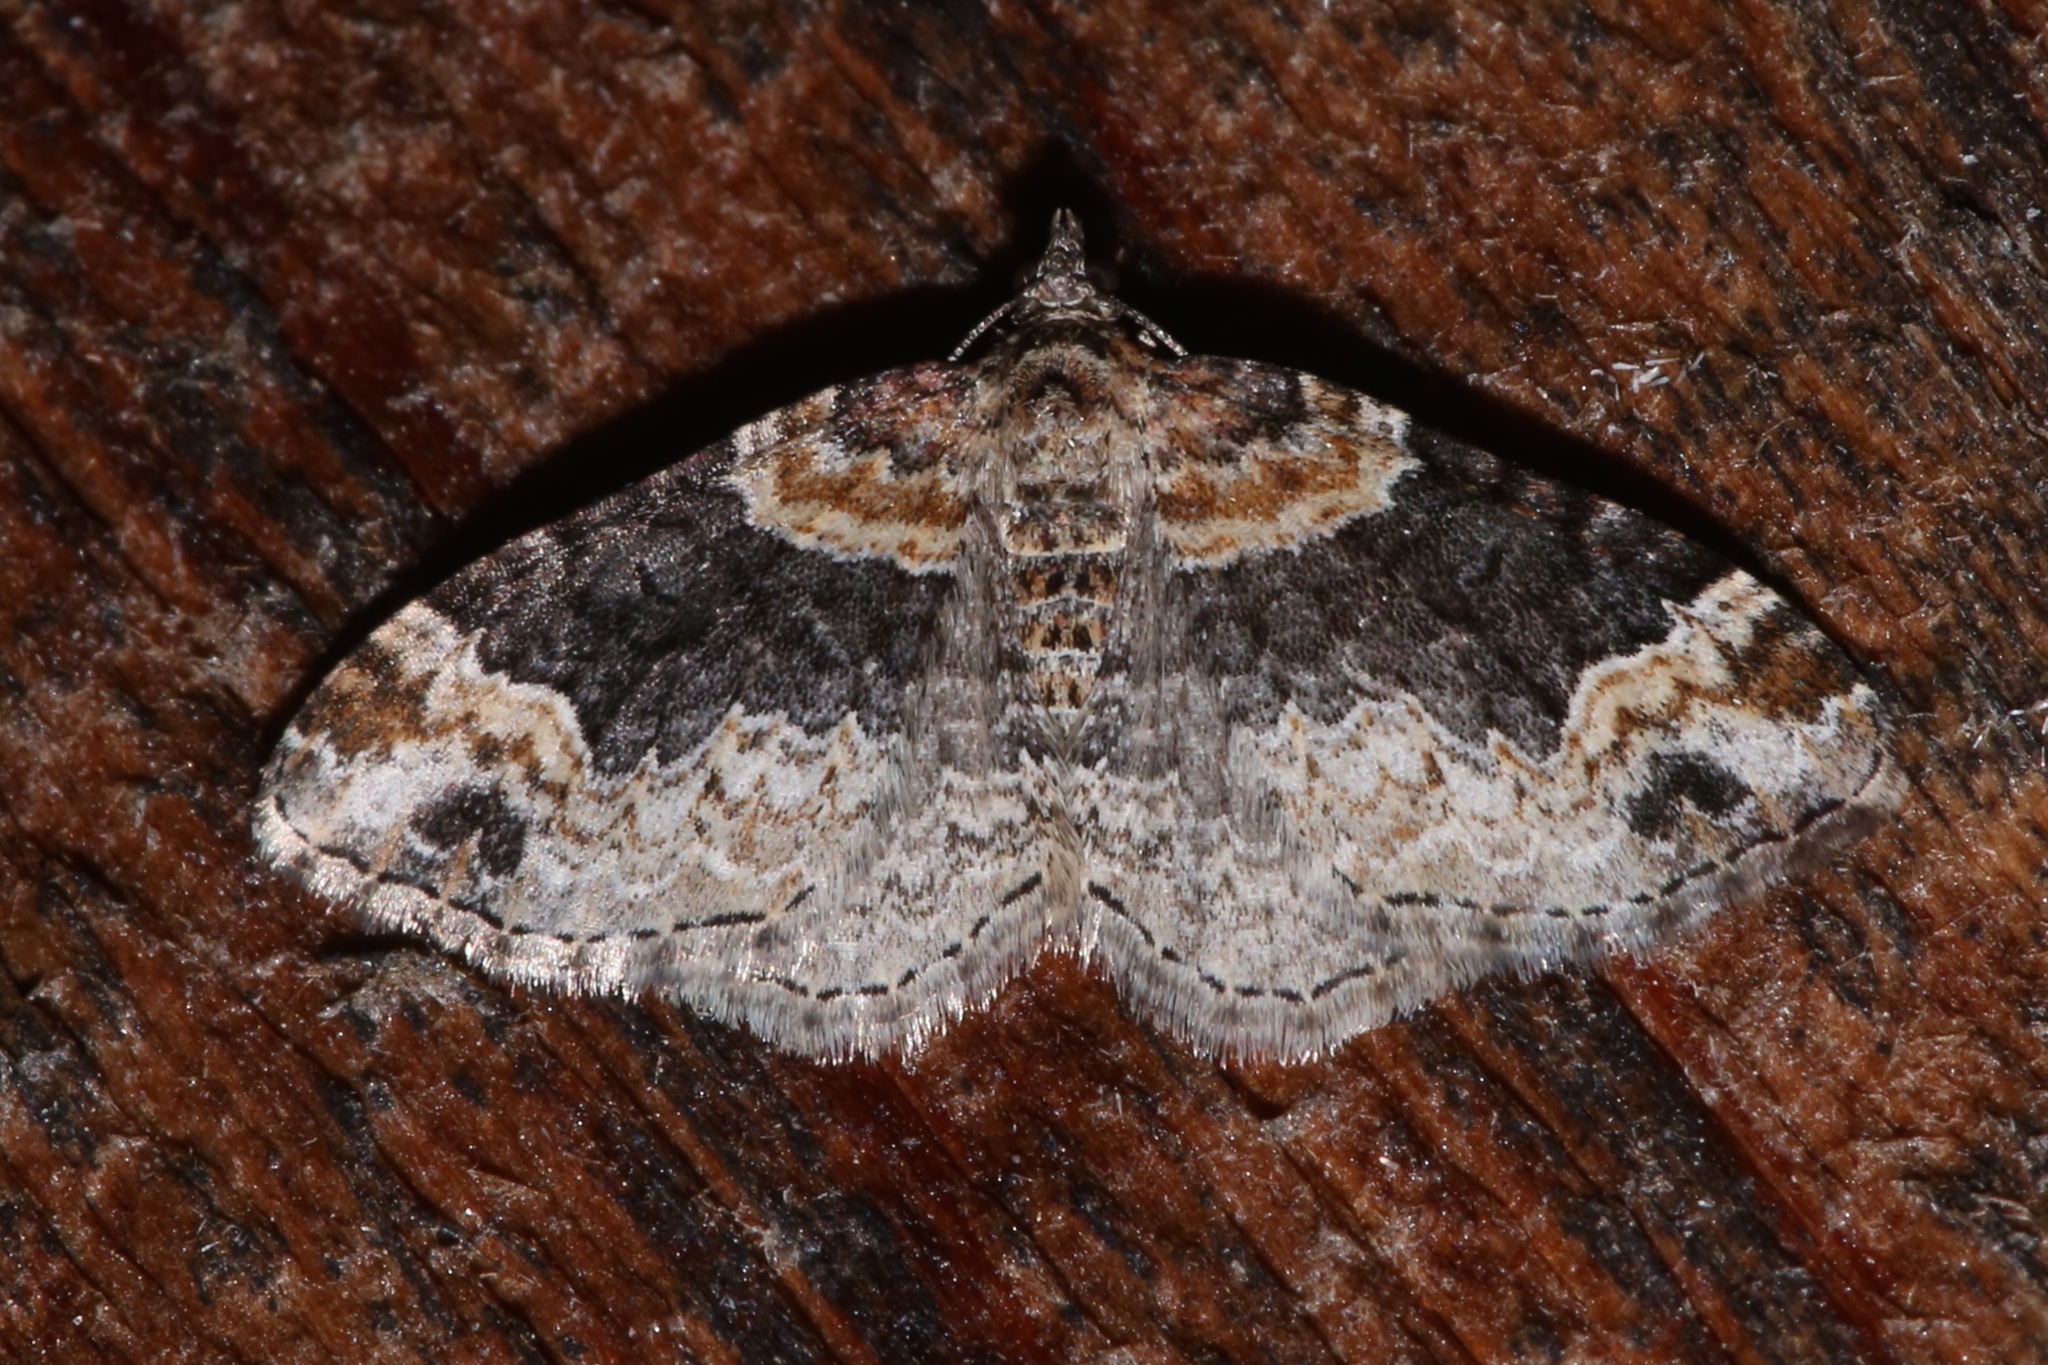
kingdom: Animalia
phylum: Arthropoda
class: Insecta
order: Lepidoptera
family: Geometridae
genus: Xanthorhoe
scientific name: Xanthorhoe ferrugata
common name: Dark-barred twin-spot carpet
